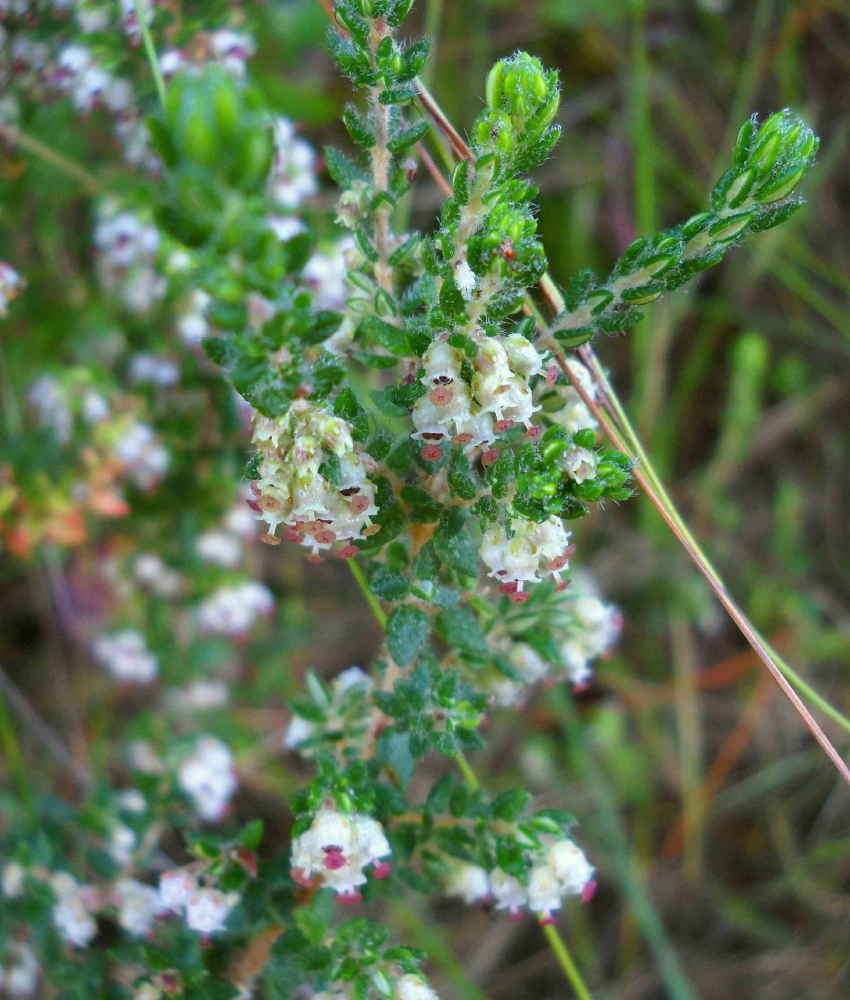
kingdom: Plantae
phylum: Tracheophyta
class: Magnoliopsida
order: Ericales
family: Ericaceae
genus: Erica
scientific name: Erica cordata
